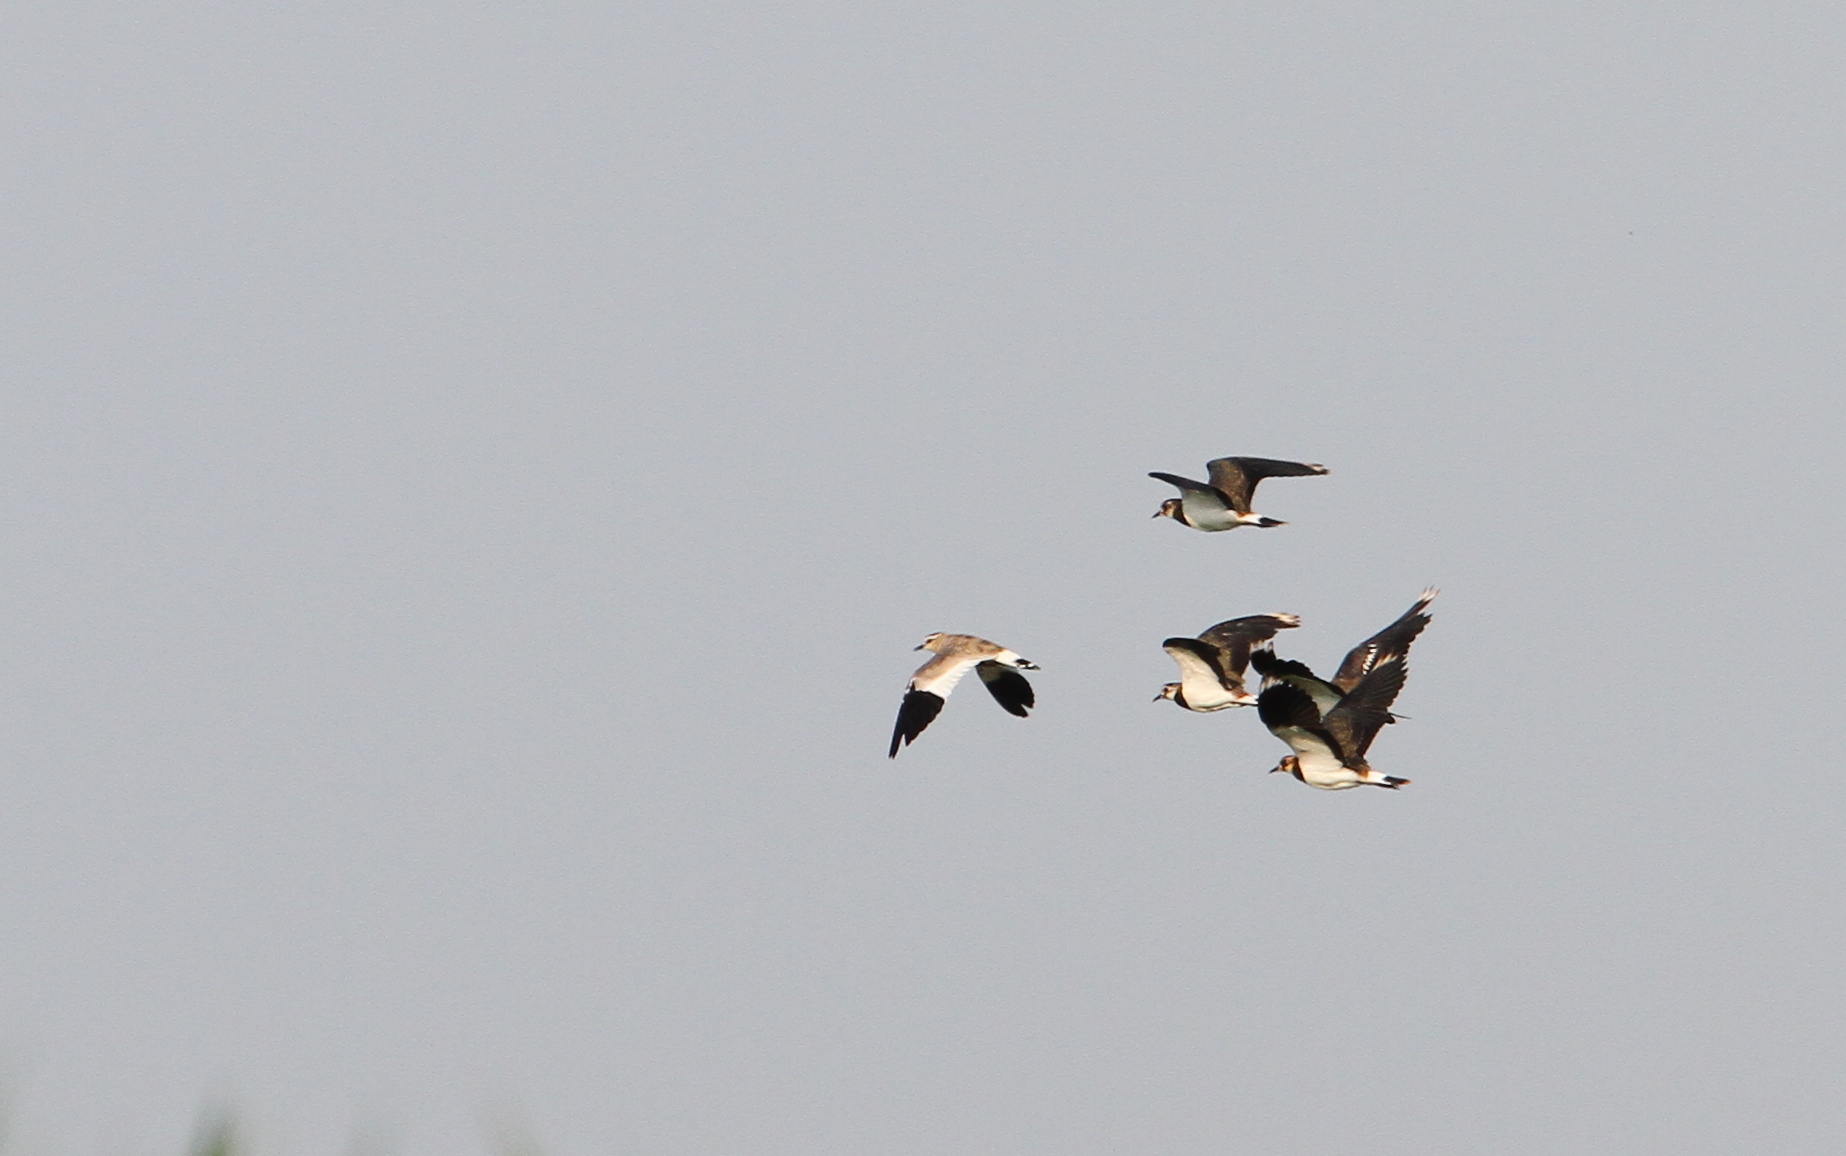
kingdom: Animalia
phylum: Chordata
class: Aves
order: Charadriiformes
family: Charadriidae
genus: Vanellus
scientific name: Vanellus gregarius
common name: Sociable lapwing
